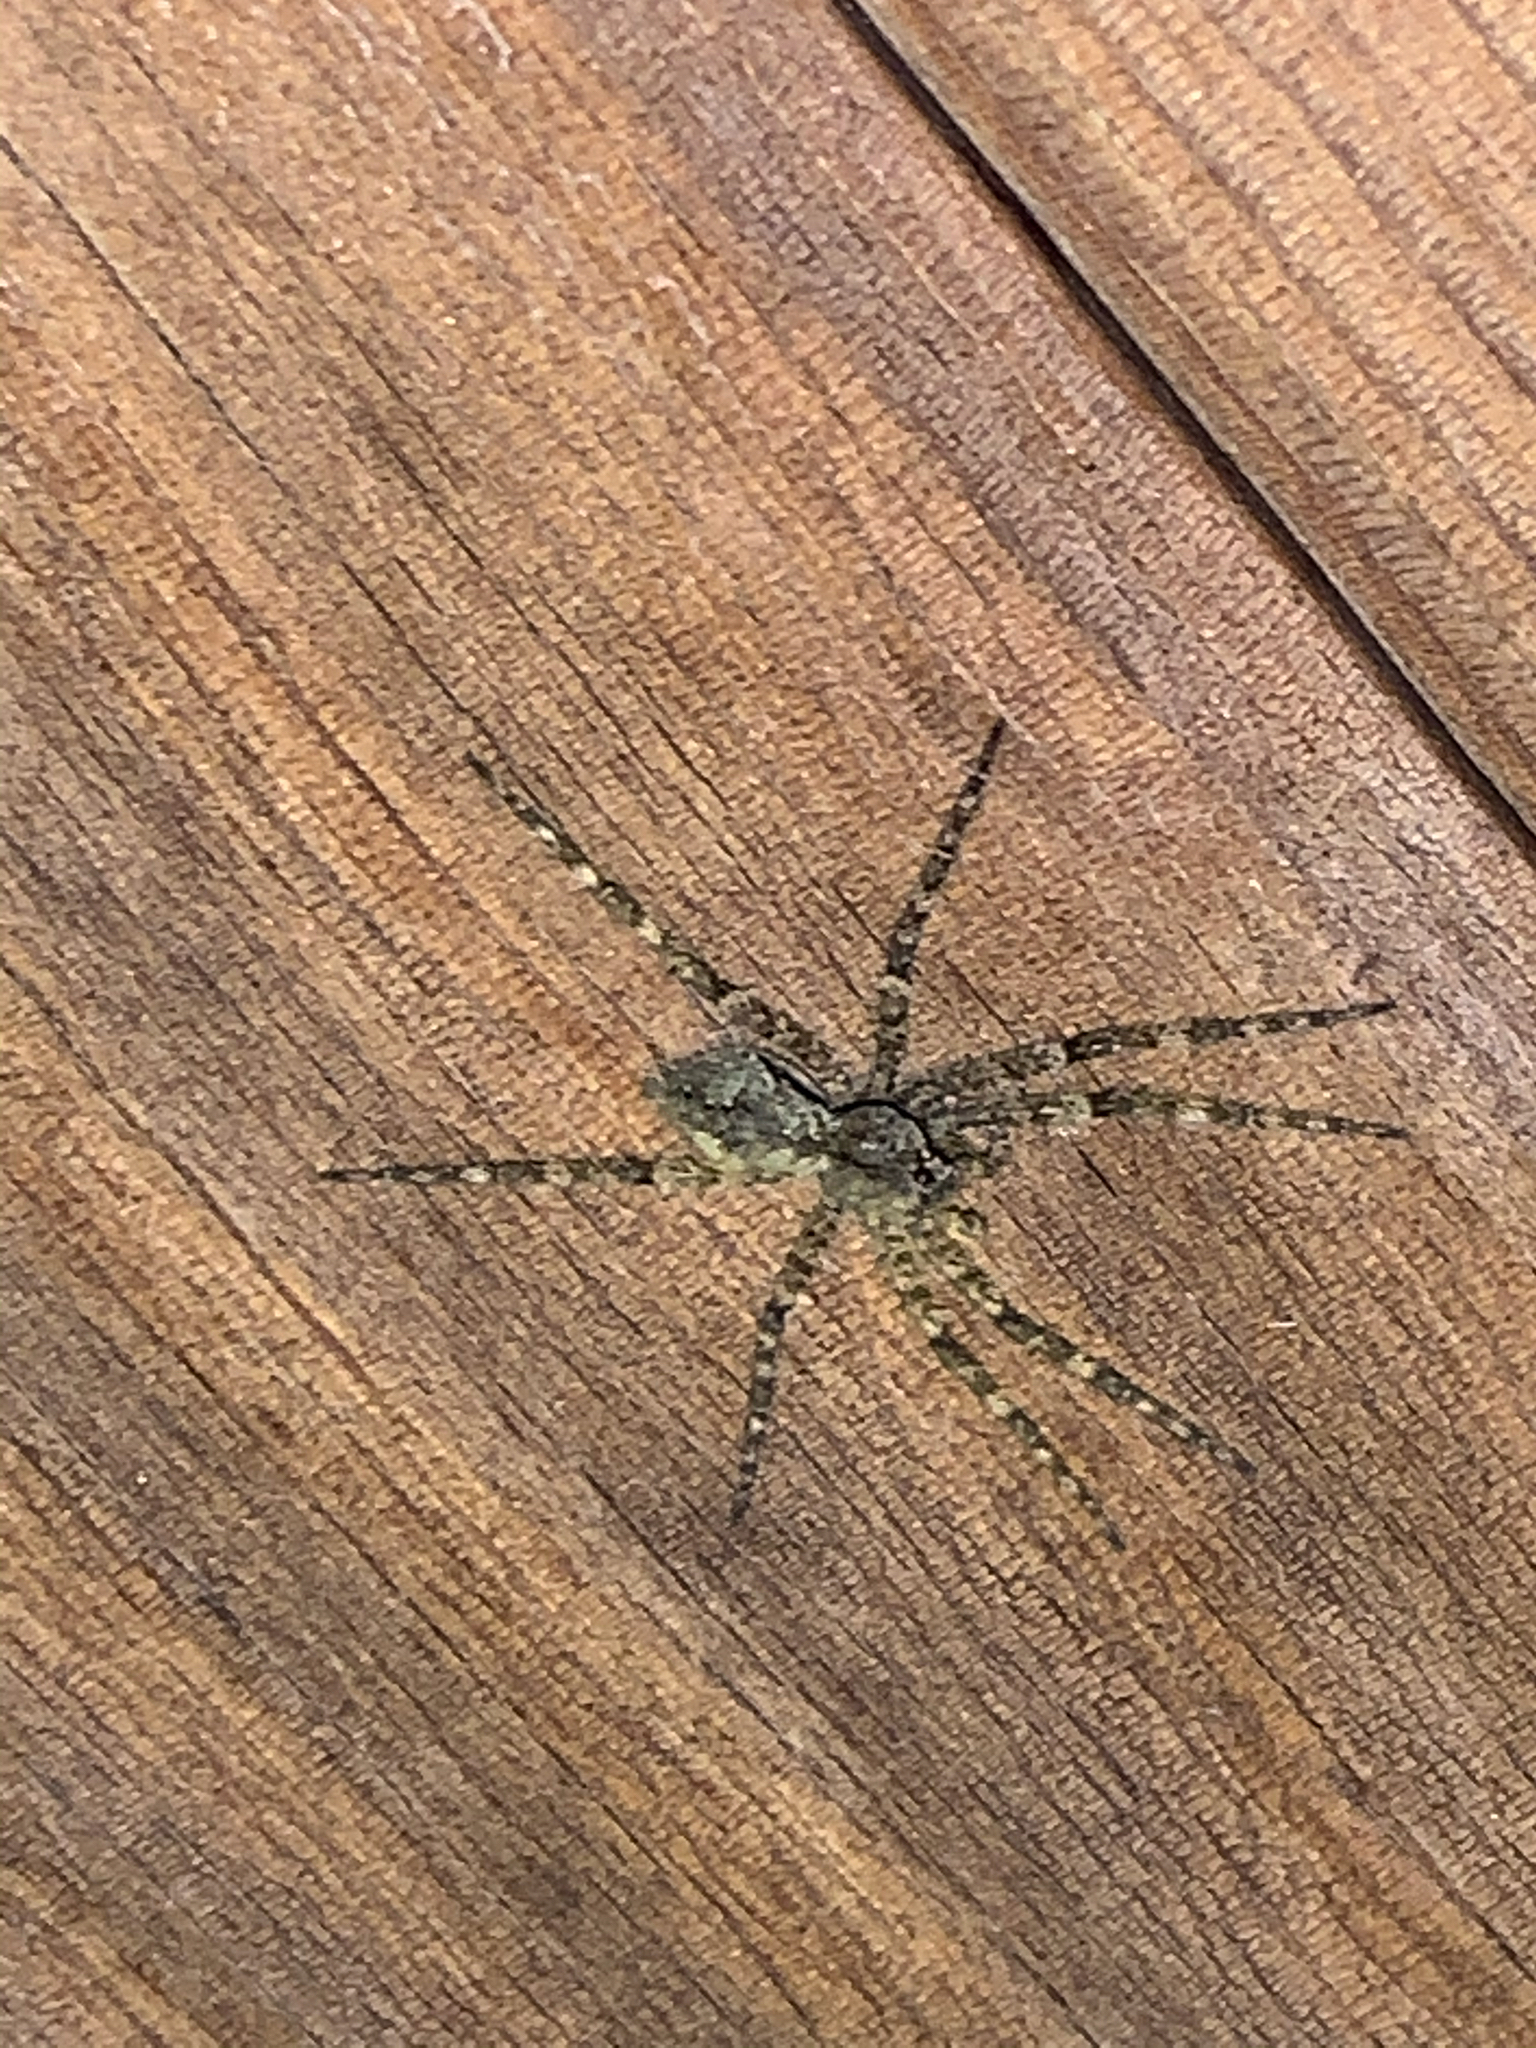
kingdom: Animalia
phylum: Arthropoda
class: Arachnida
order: Araneae
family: Pisauridae
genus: Dolomedes
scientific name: Dolomedes albineus
